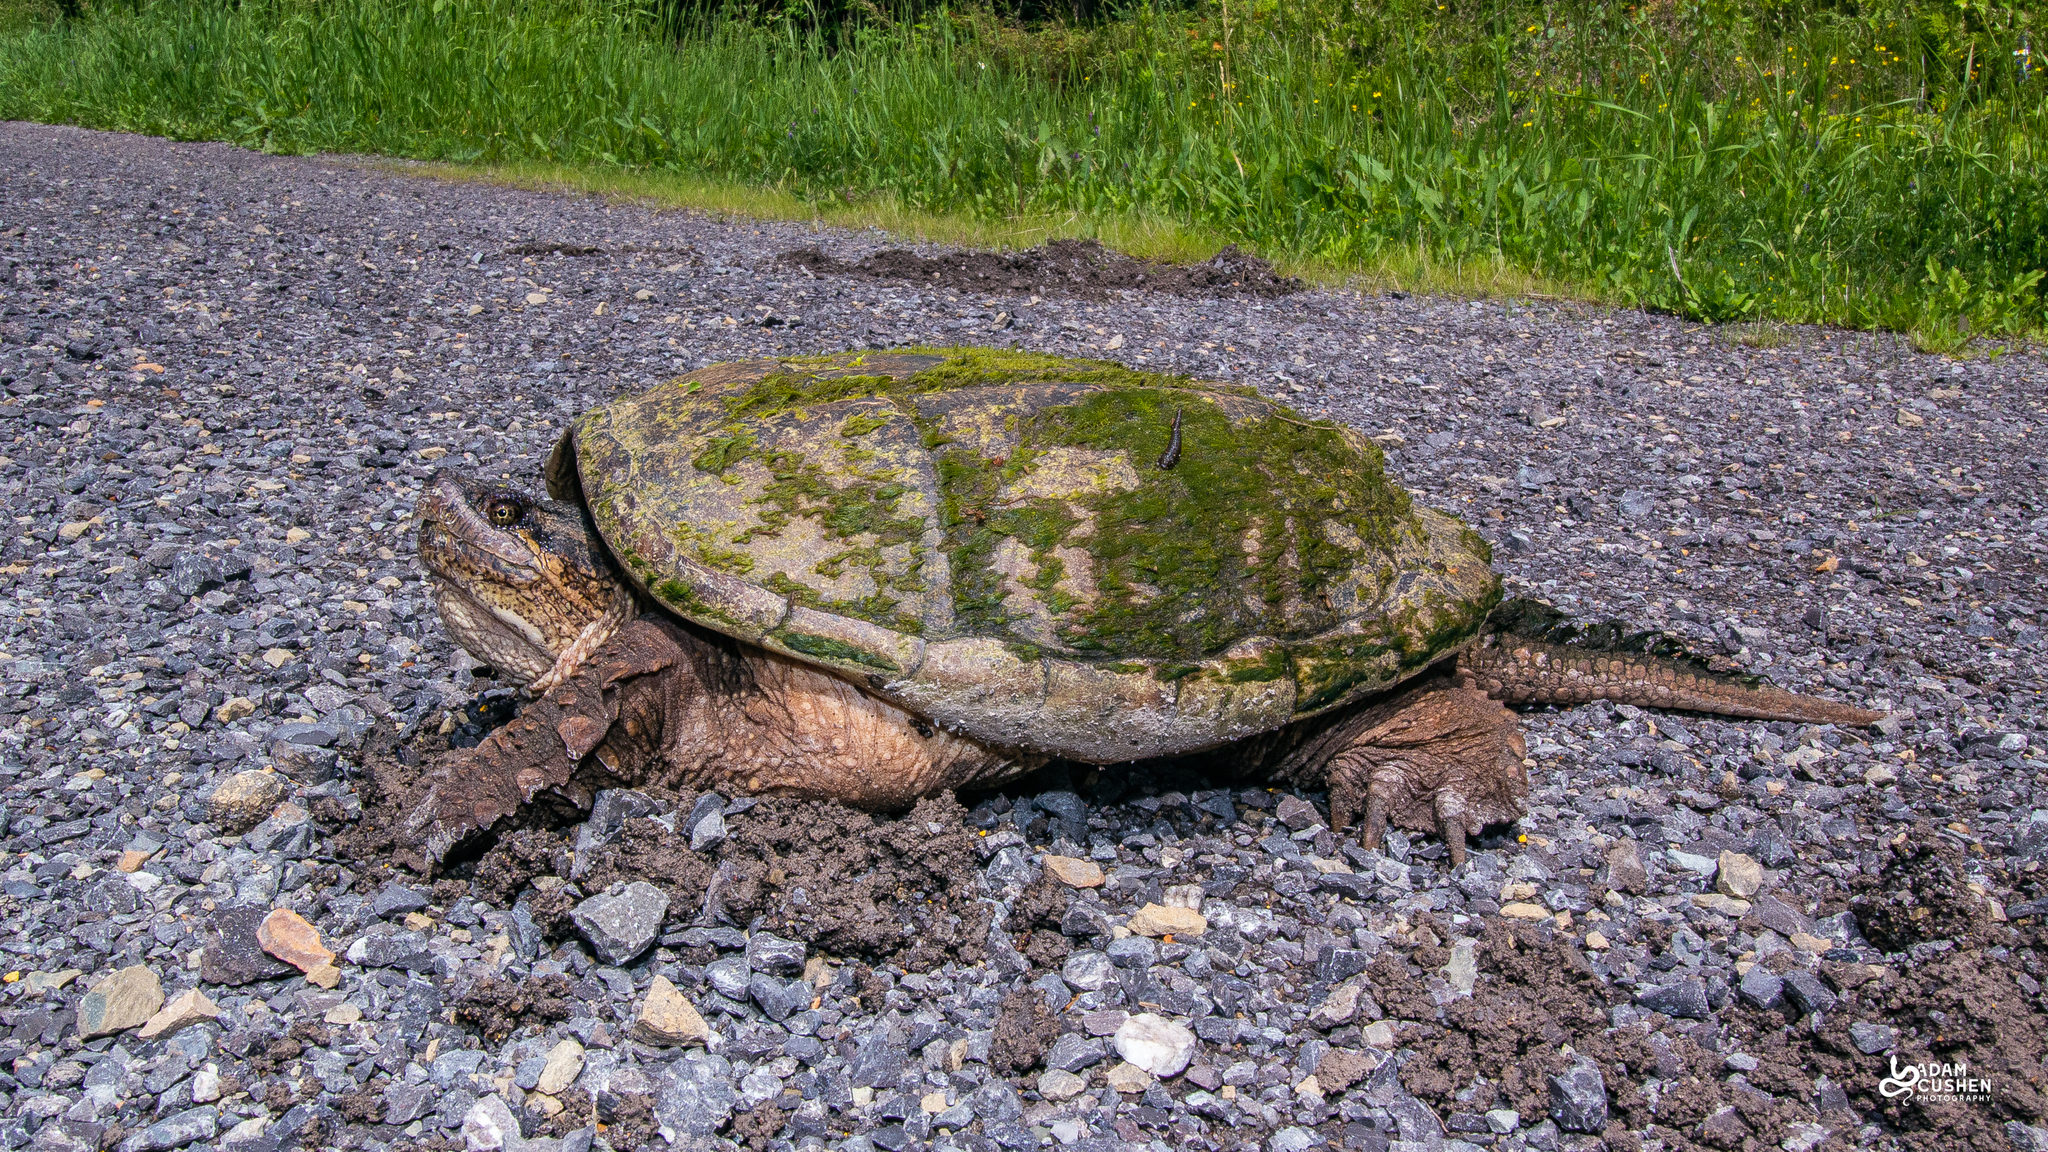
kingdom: Animalia
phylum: Chordata
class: Testudines
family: Chelydridae
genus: Chelydra
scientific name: Chelydra serpentina
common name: Common snapping turtle
